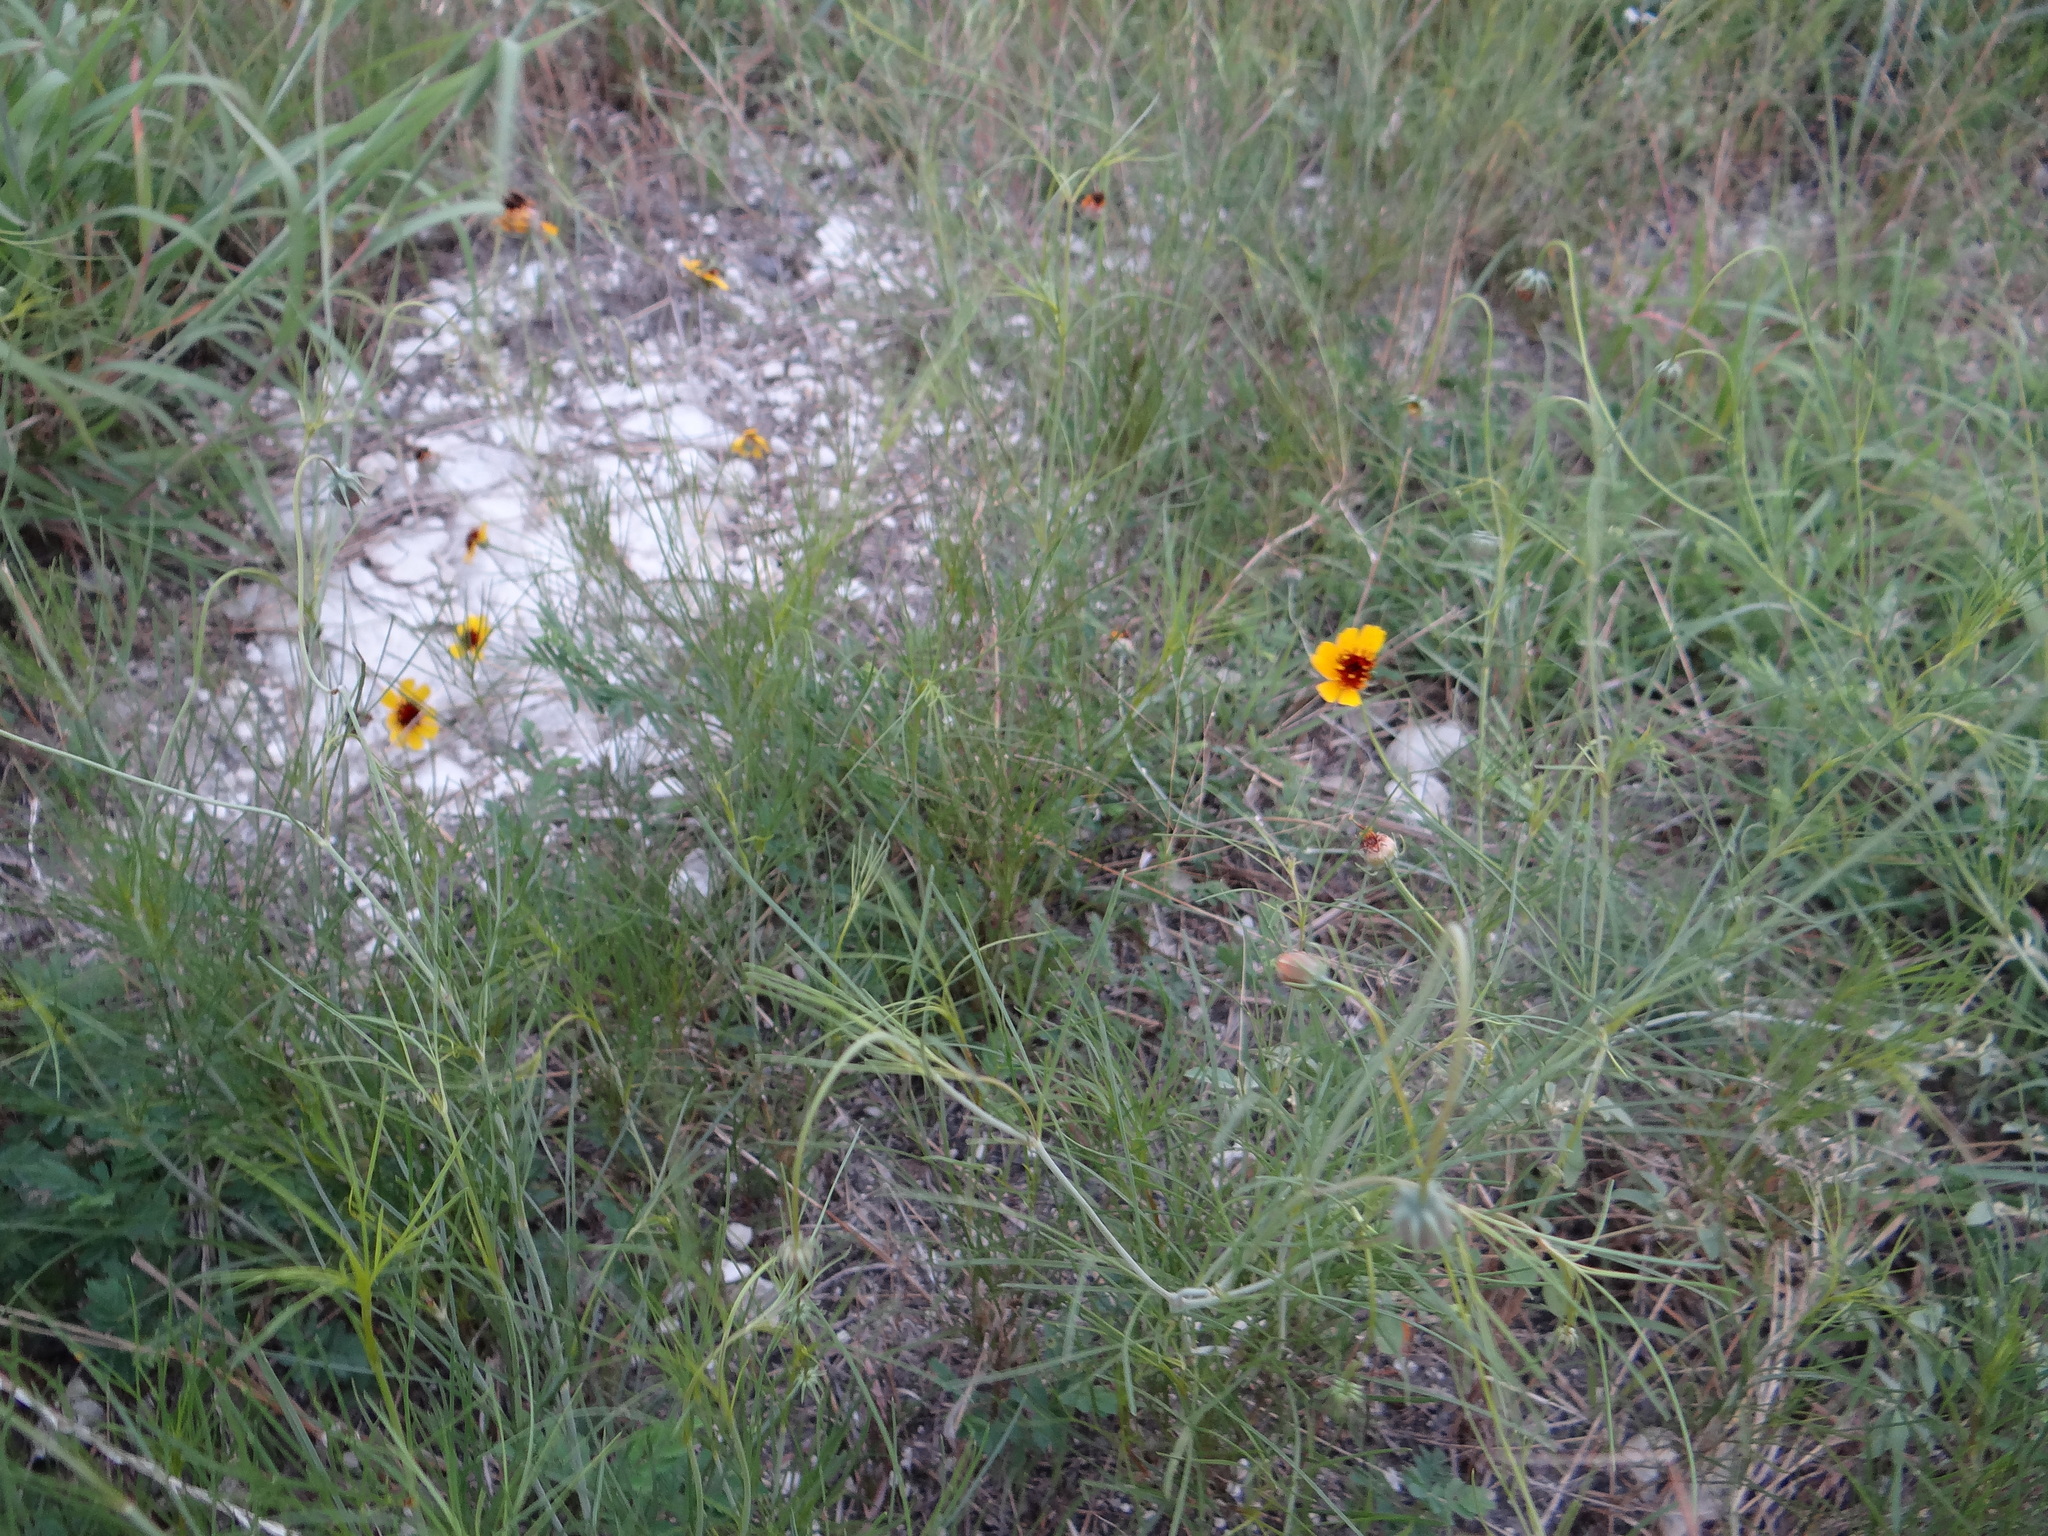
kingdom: Plantae
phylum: Tracheophyta
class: Magnoliopsida
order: Asterales
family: Asteraceae
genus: Thelesperma
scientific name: Thelesperma filifolium
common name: Stiff greenthread
